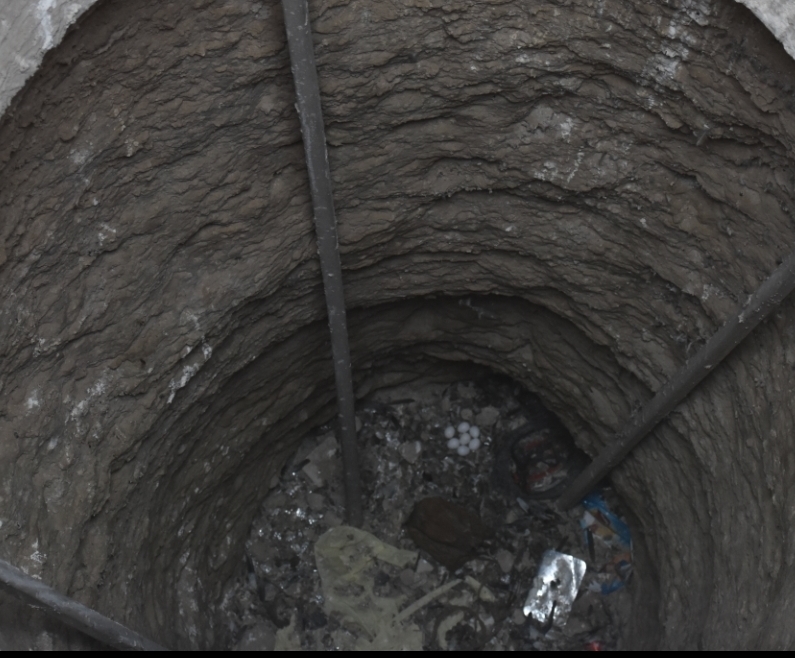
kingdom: Animalia
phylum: Chordata
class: Aves
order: Strigiformes
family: Tytonidae
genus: Tyto
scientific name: Tyto alba
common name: Barn owl
